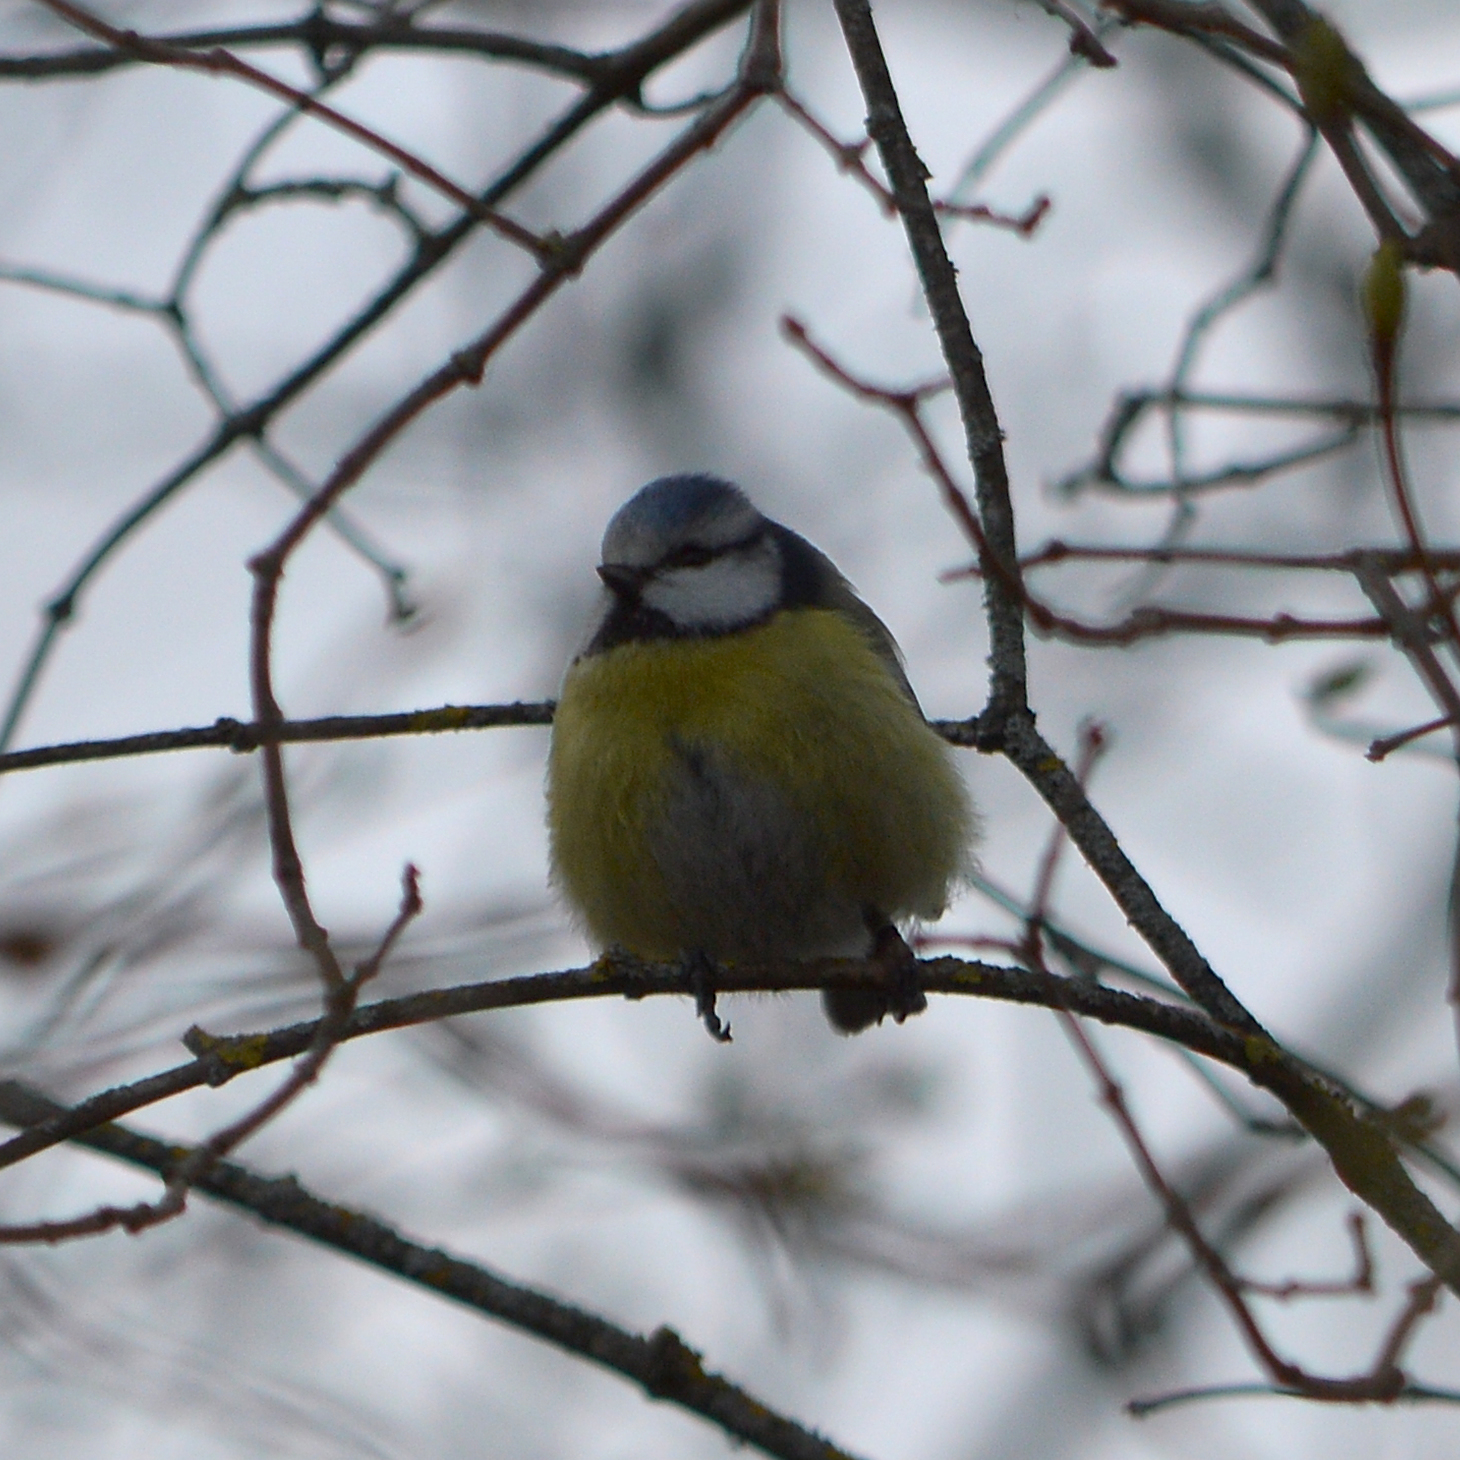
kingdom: Animalia
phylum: Chordata
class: Aves
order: Passeriformes
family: Paridae
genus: Cyanistes
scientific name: Cyanistes caeruleus
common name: Eurasian blue tit
